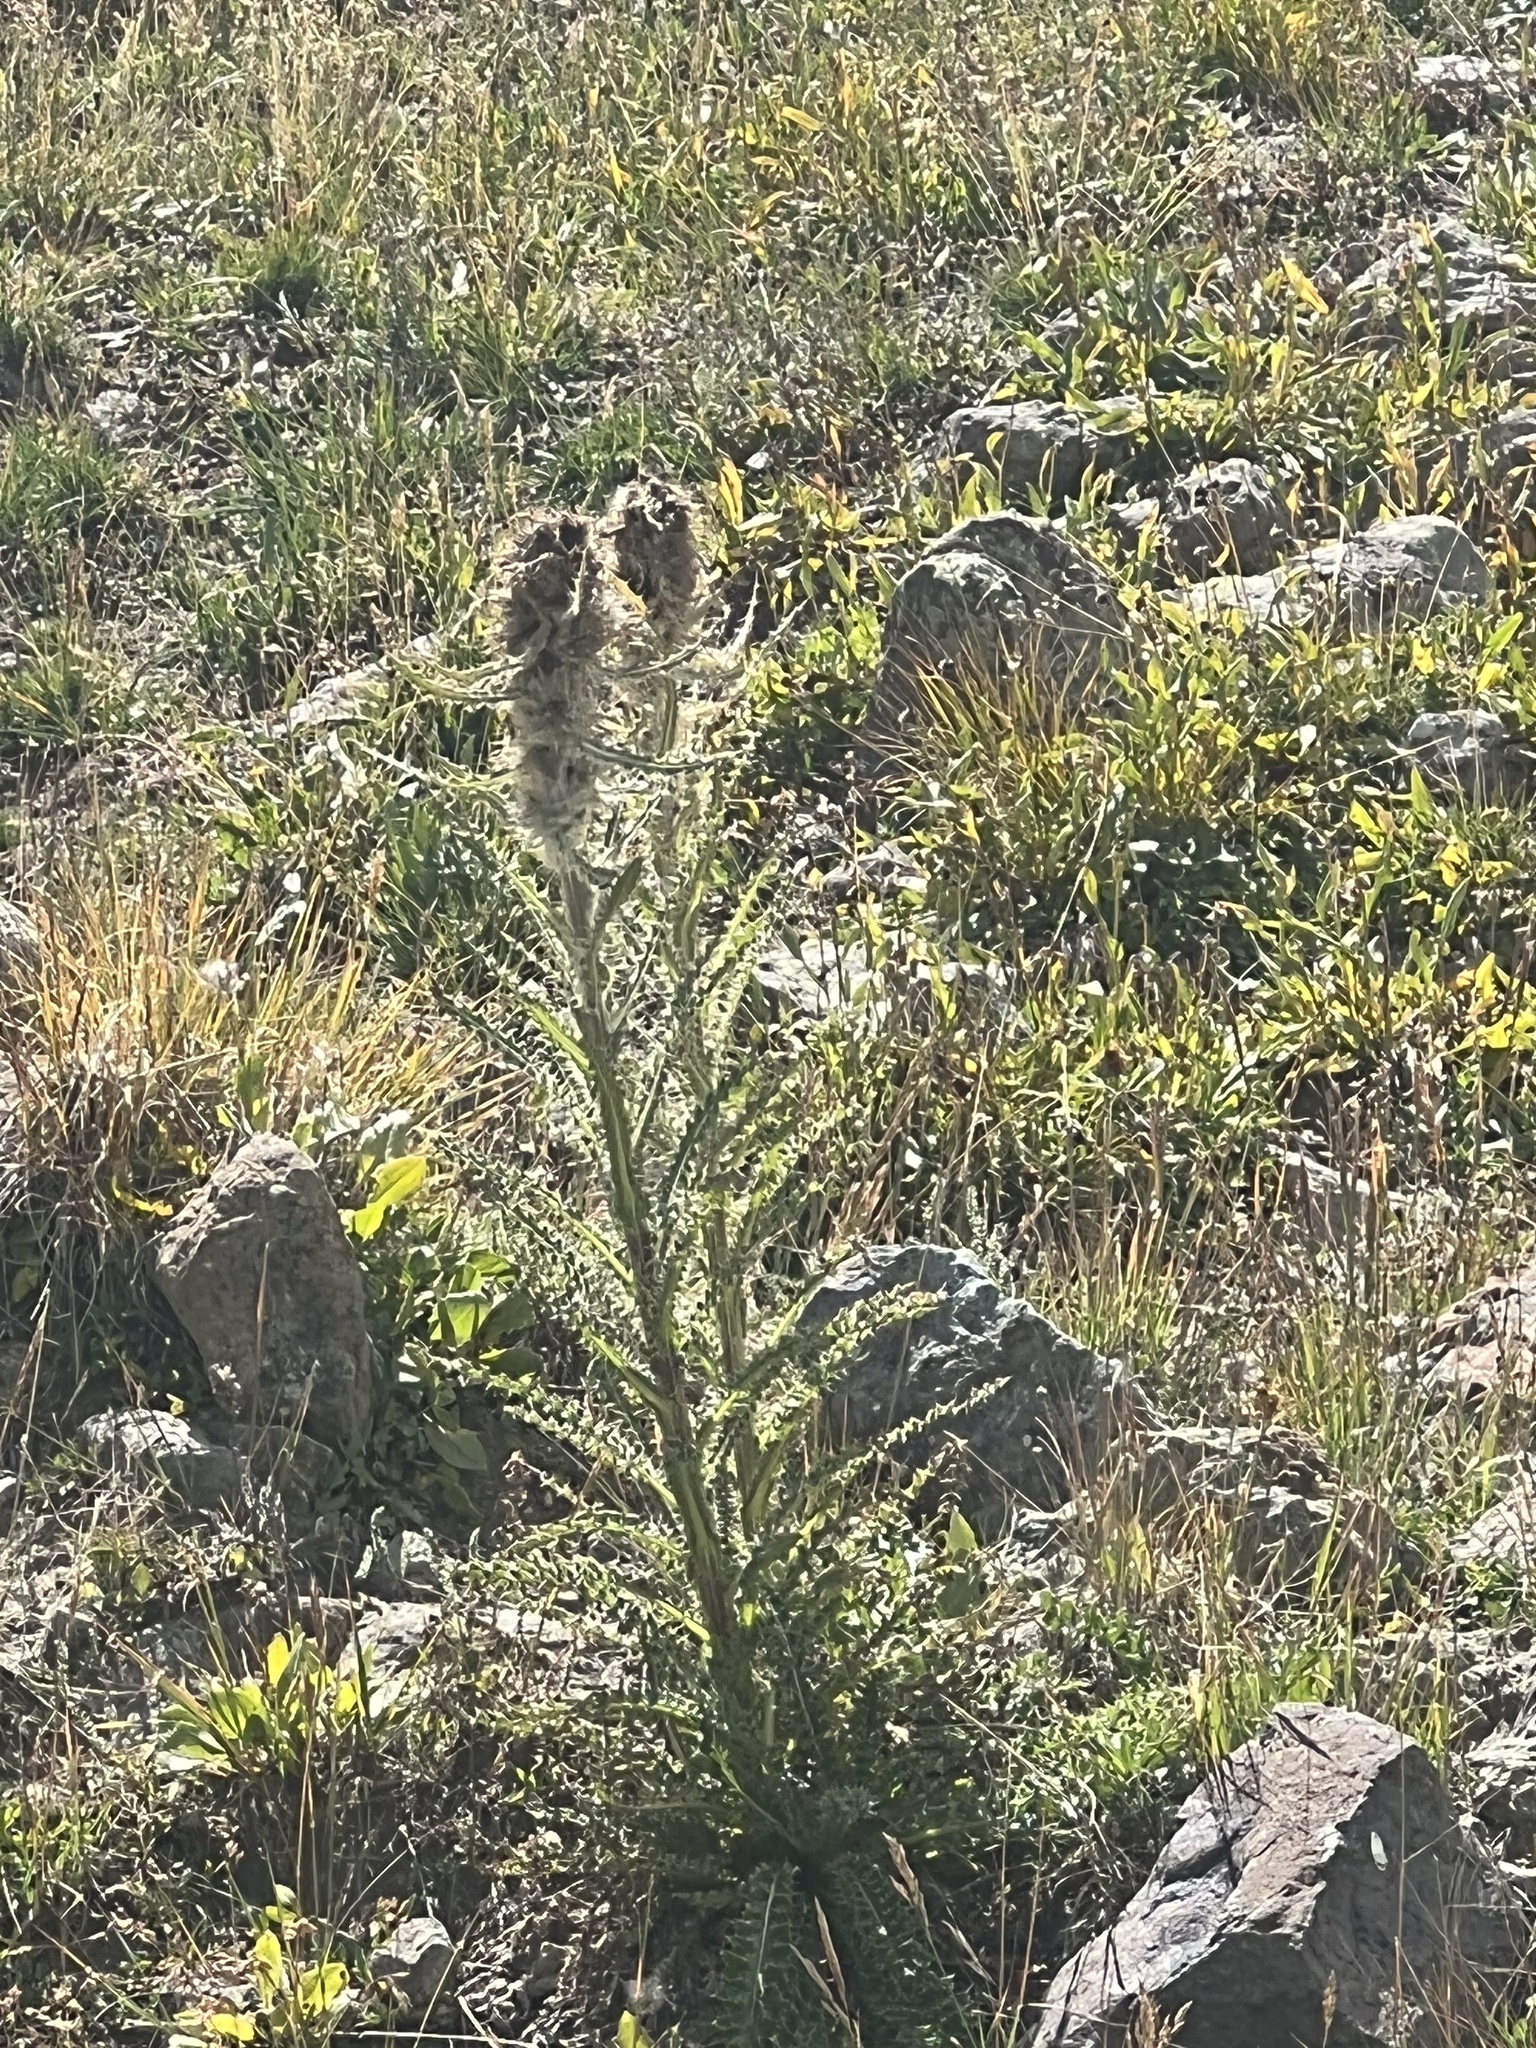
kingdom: Plantae
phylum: Tracheophyta
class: Magnoliopsida
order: Asterales
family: Asteraceae
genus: Cirsium
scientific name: Cirsium hesperium
